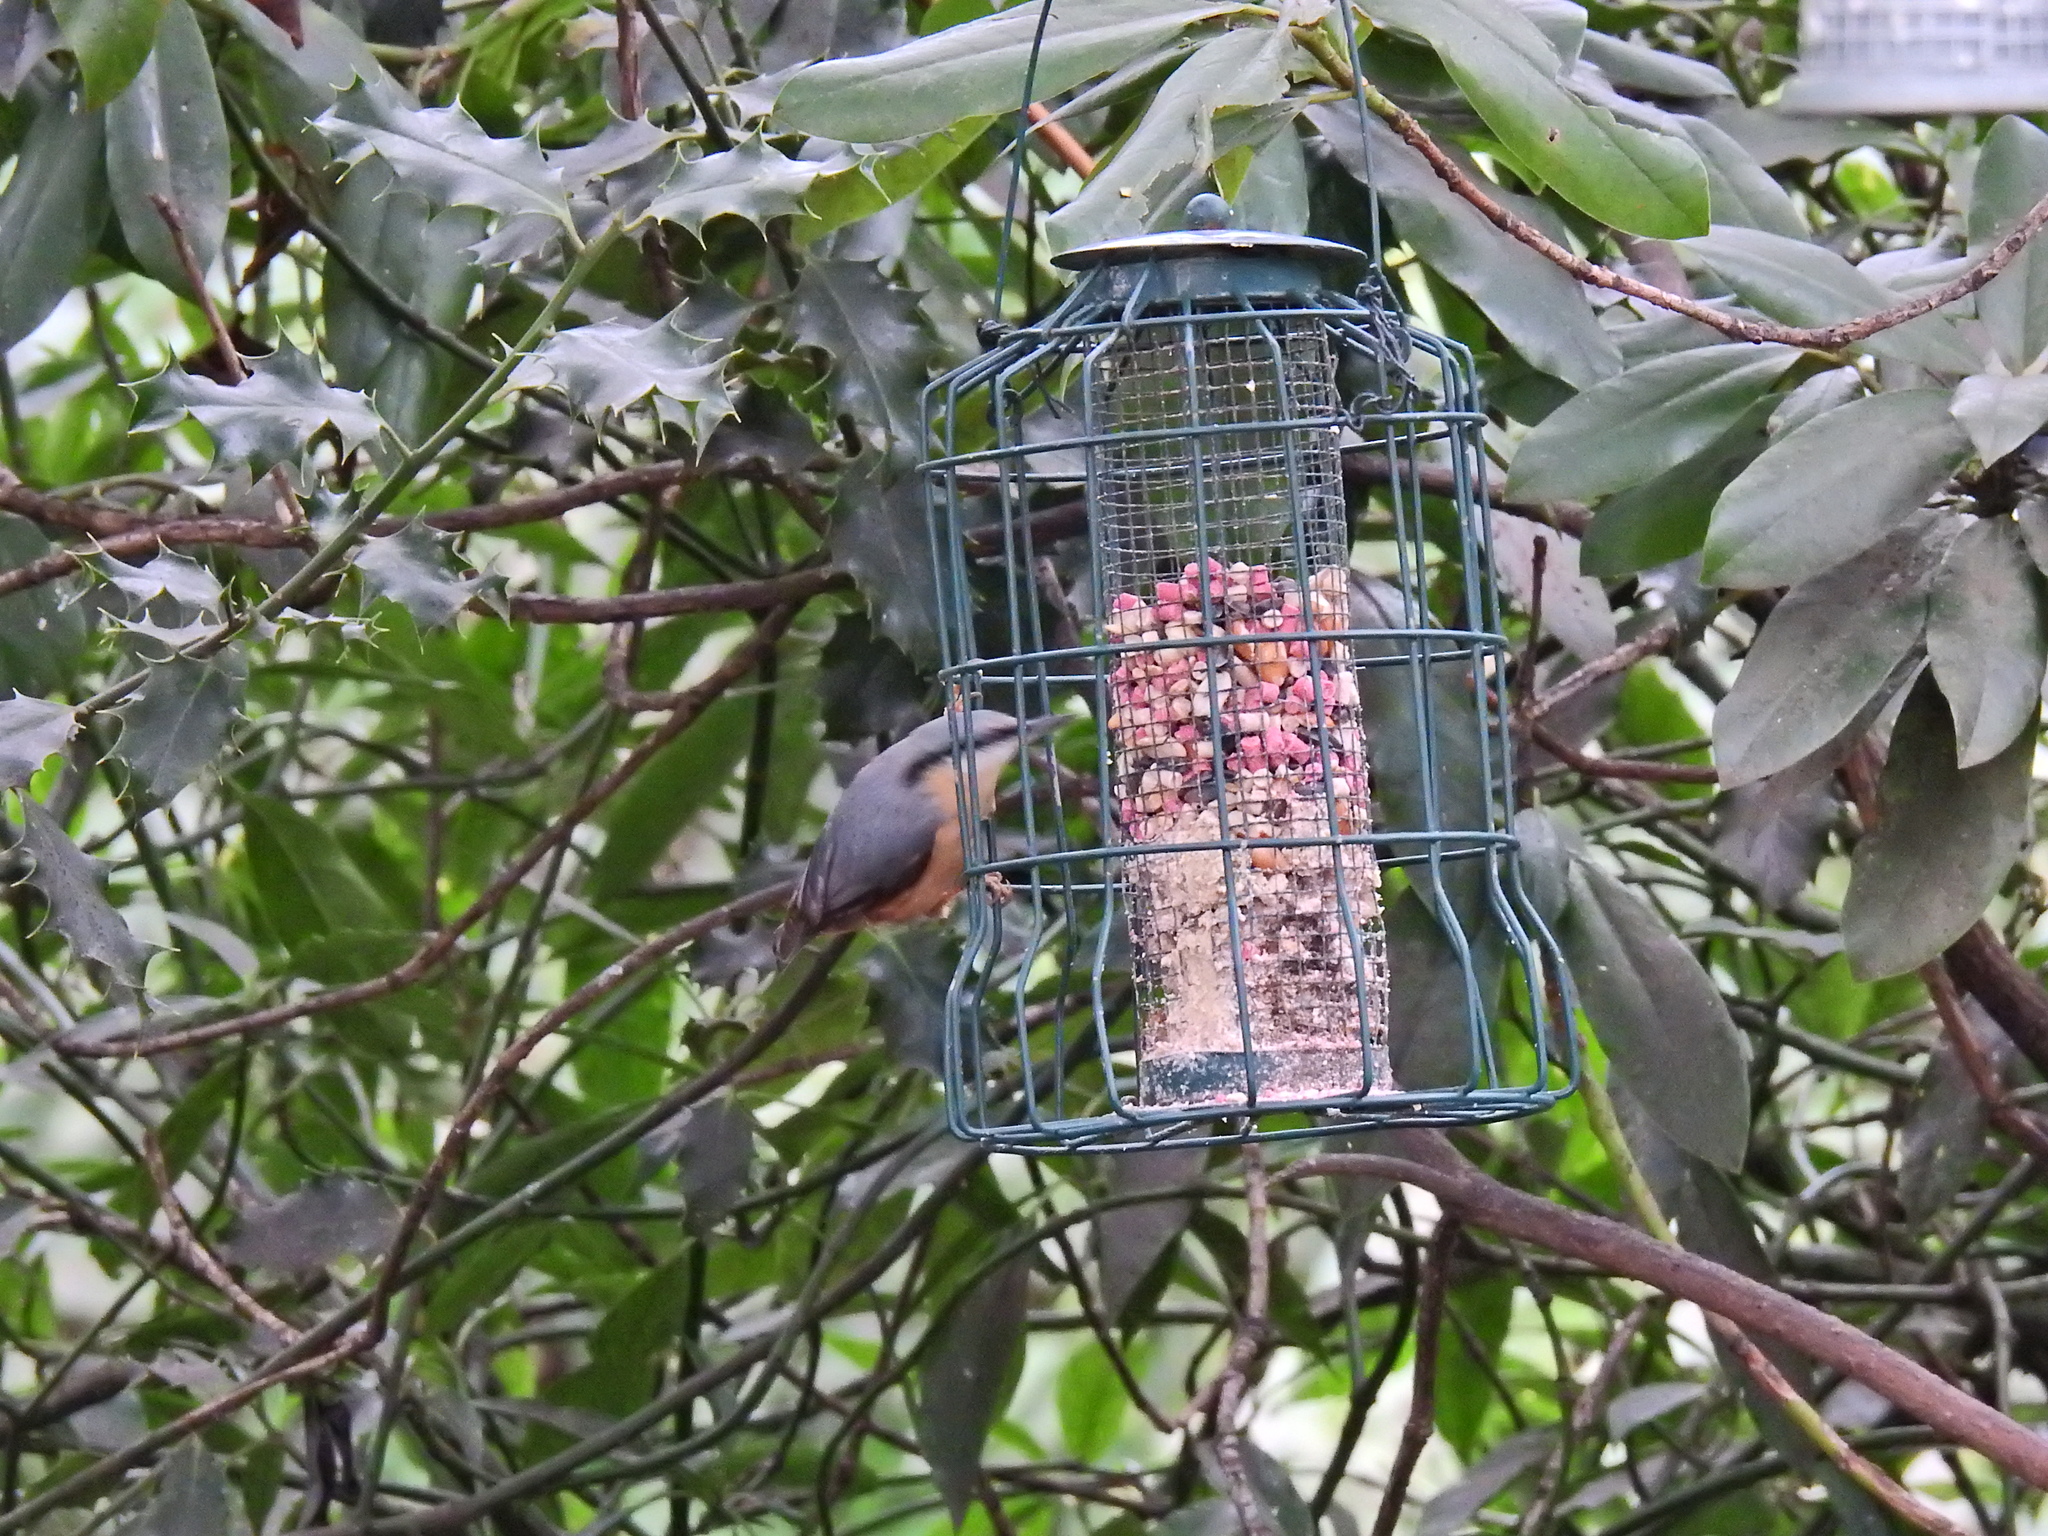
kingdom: Animalia
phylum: Chordata
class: Aves
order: Passeriformes
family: Sittidae
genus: Sitta
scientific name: Sitta europaea
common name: Eurasian nuthatch
